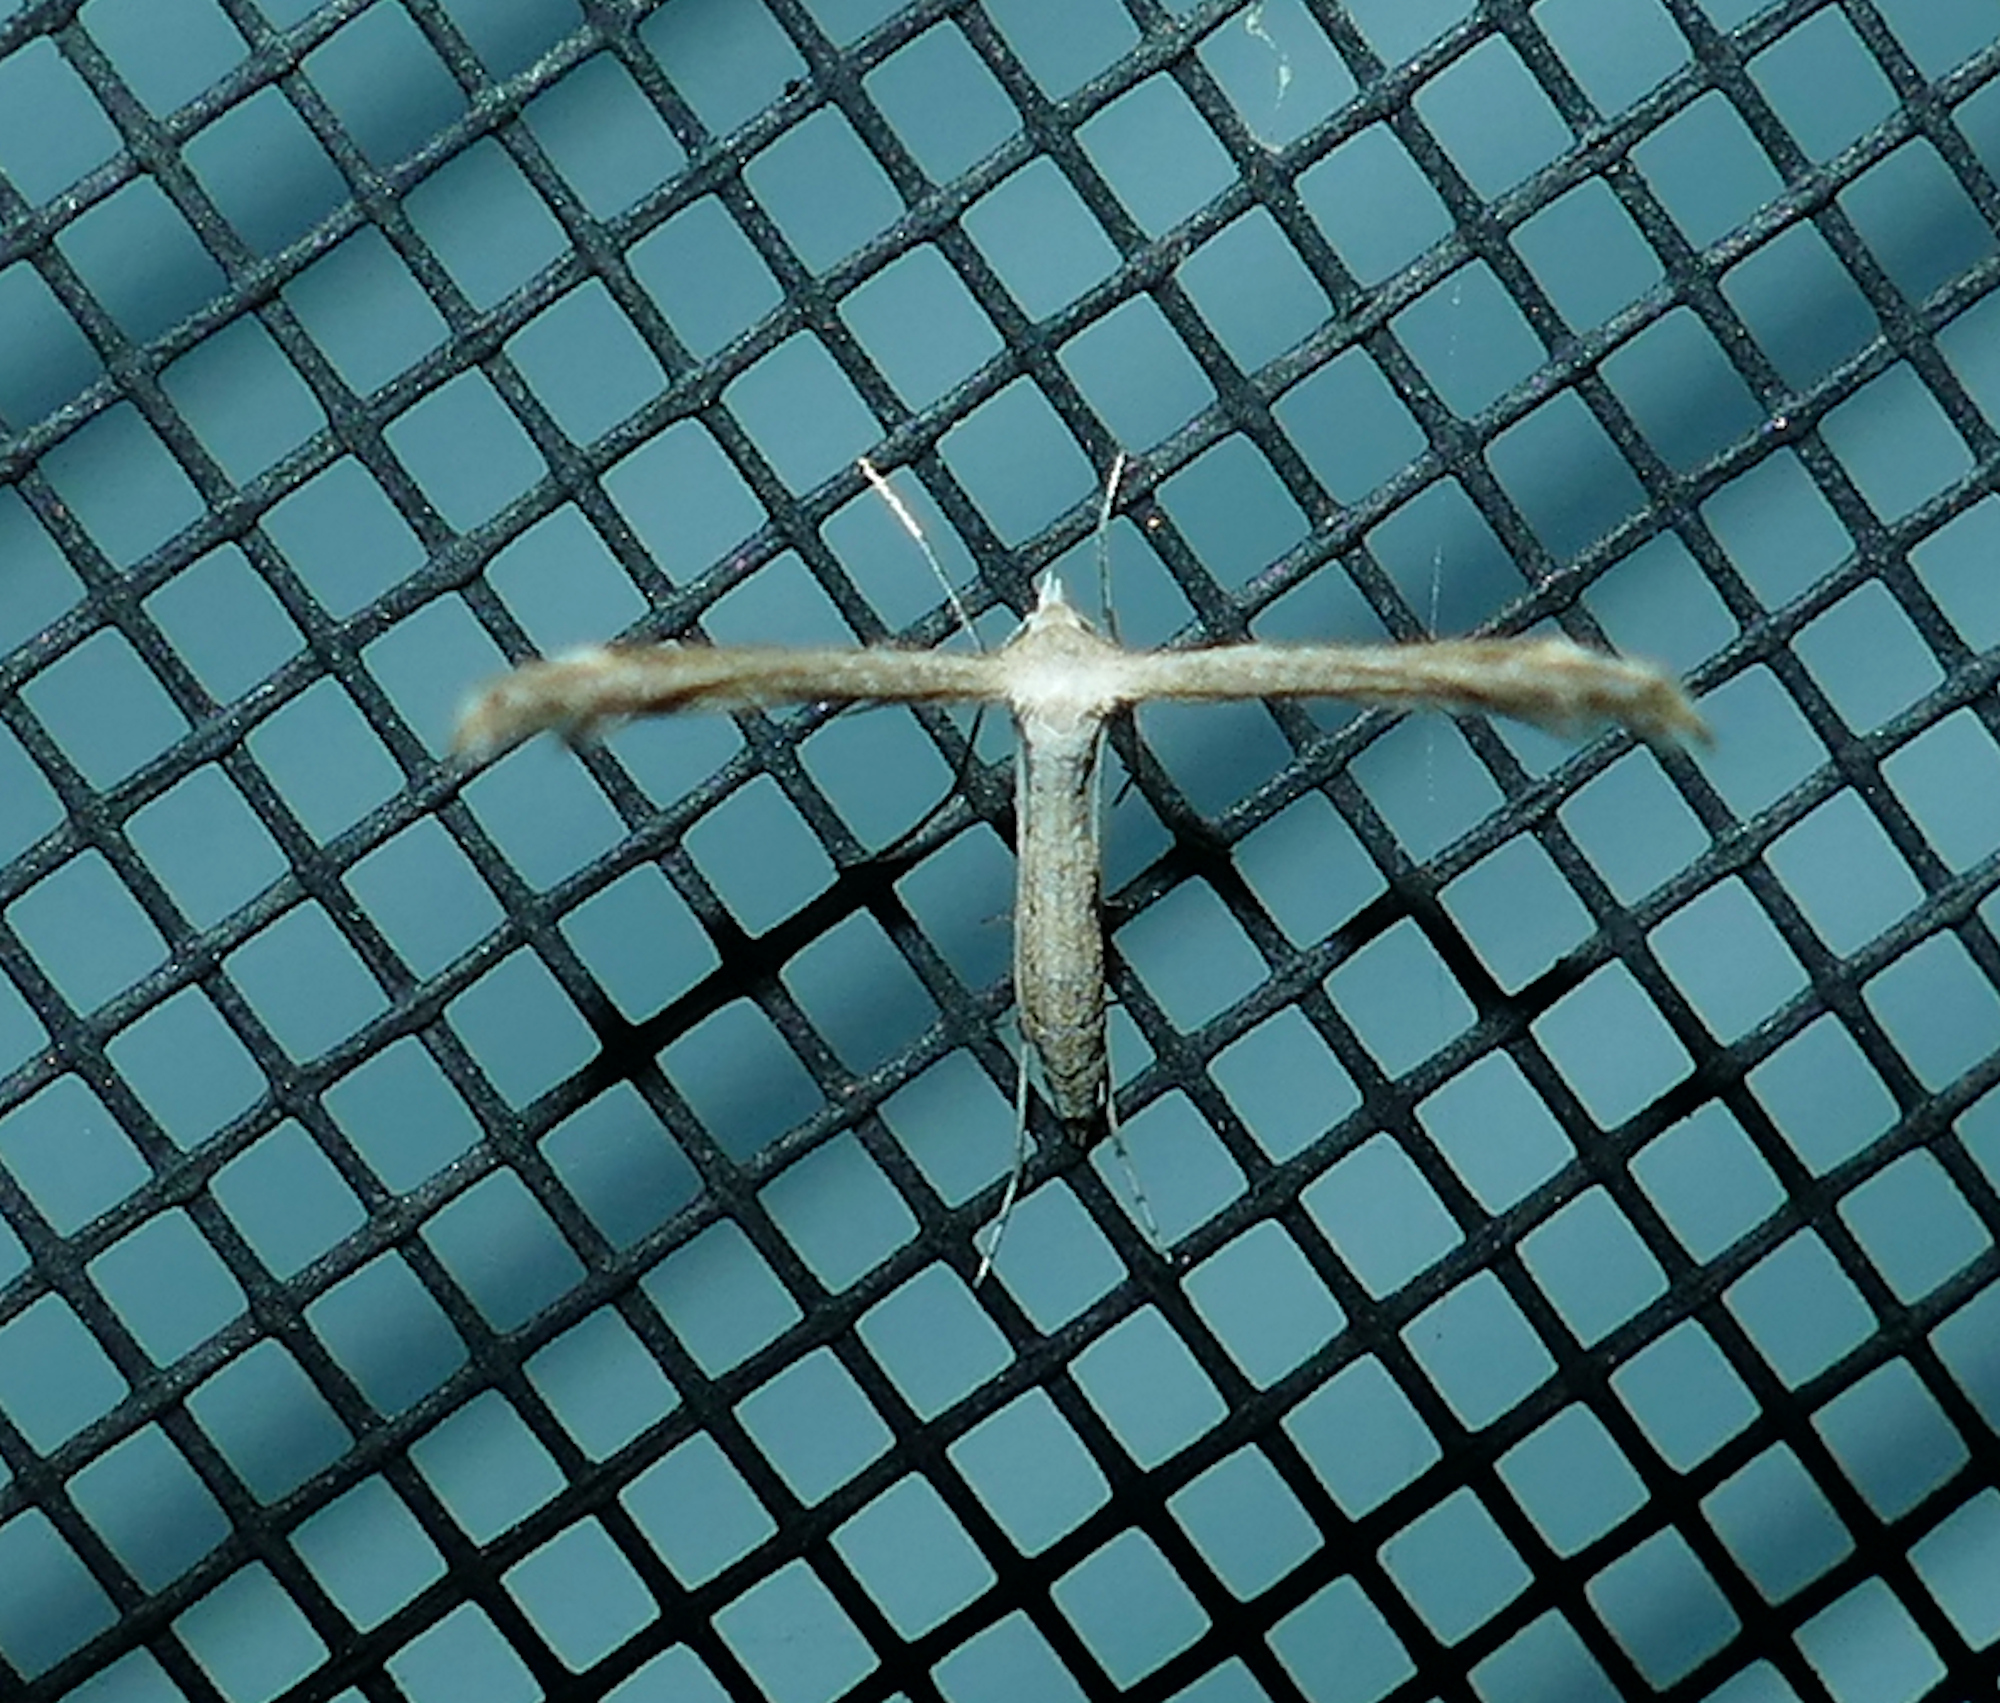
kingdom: Animalia
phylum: Arthropoda
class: Insecta
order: Lepidoptera
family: Pterophoridae
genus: Lioptilodes
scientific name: Lioptilodes albistriolatus
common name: Moth
